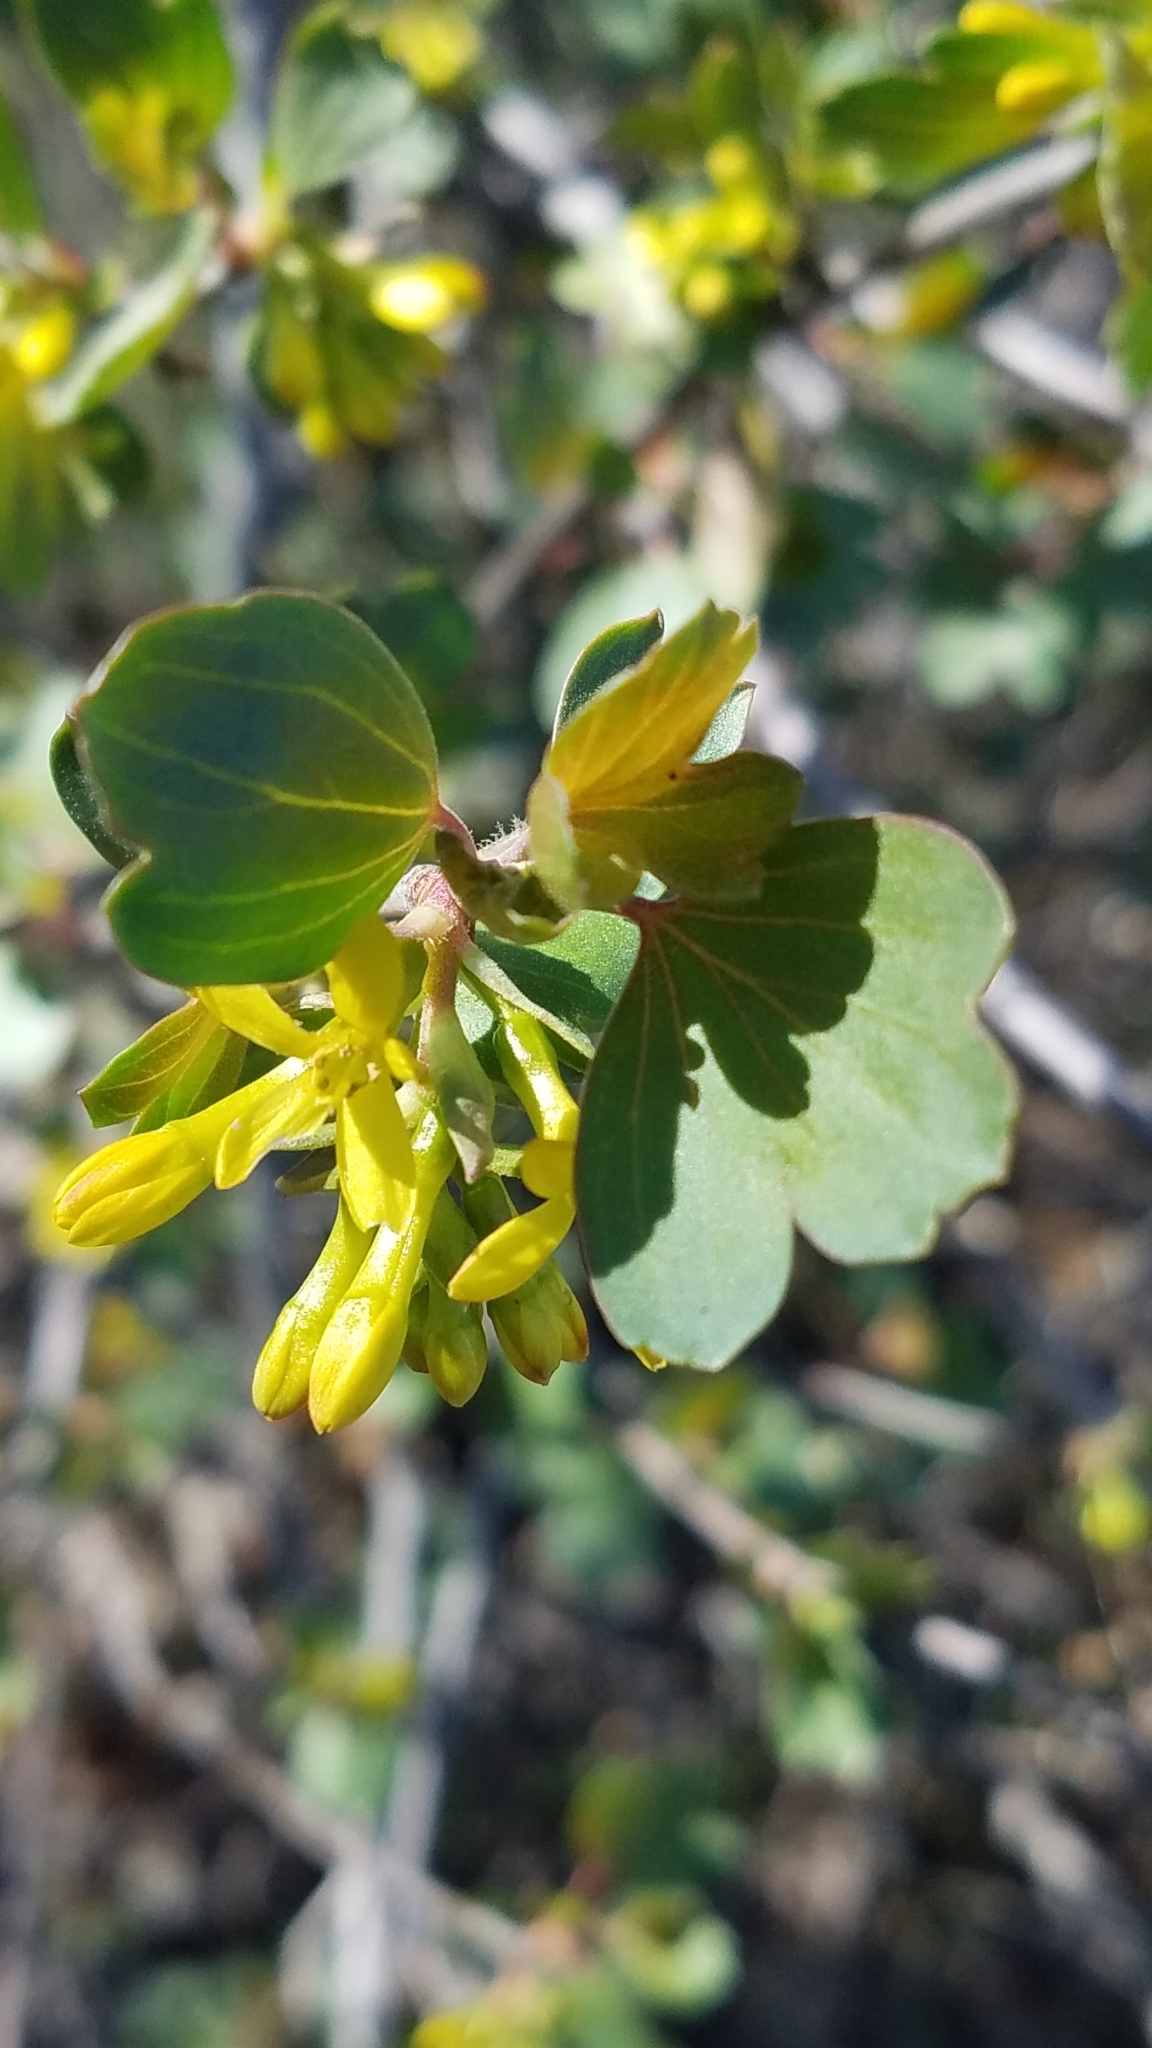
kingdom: Plantae
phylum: Tracheophyta
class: Magnoliopsida
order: Saxifragales
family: Grossulariaceae
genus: Ribes
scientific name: Ribes aureum
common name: Golden currant
